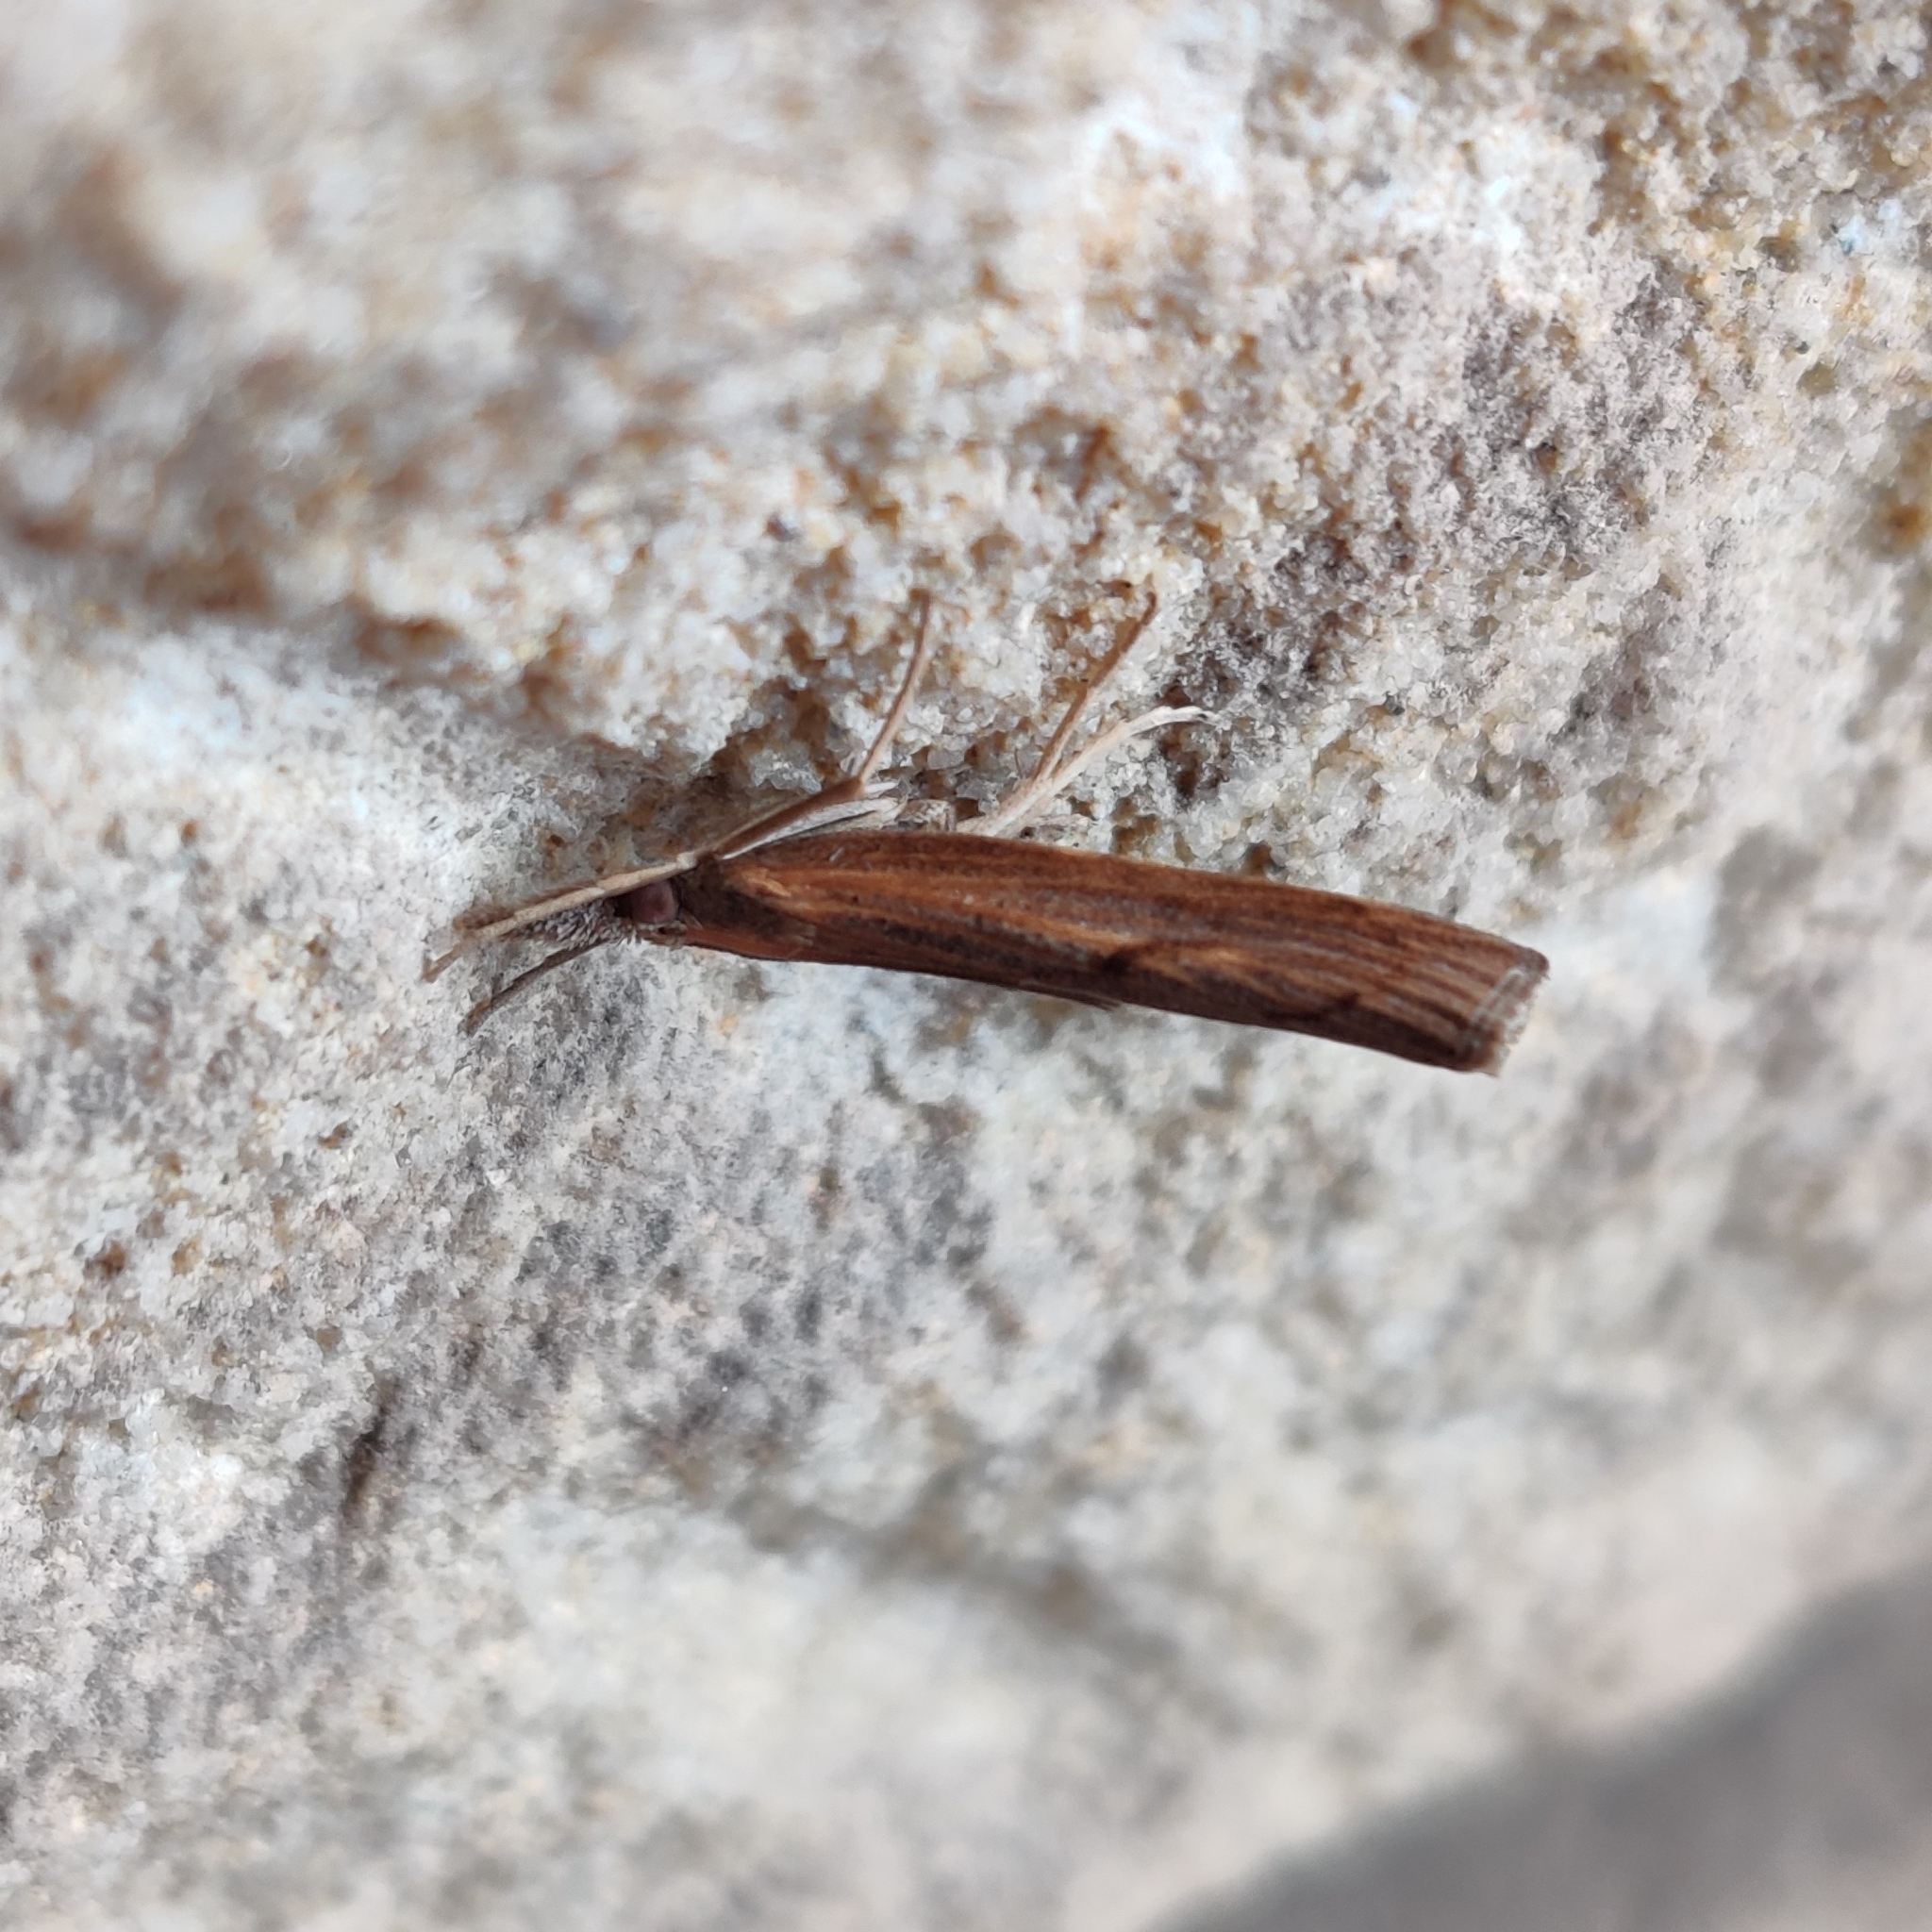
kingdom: Animalia
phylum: Arthropoda
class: Insecta
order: Lepidoptera
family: Crambidae
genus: Pediasia
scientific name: Pediasia contaminella
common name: Waste grass-veneer
